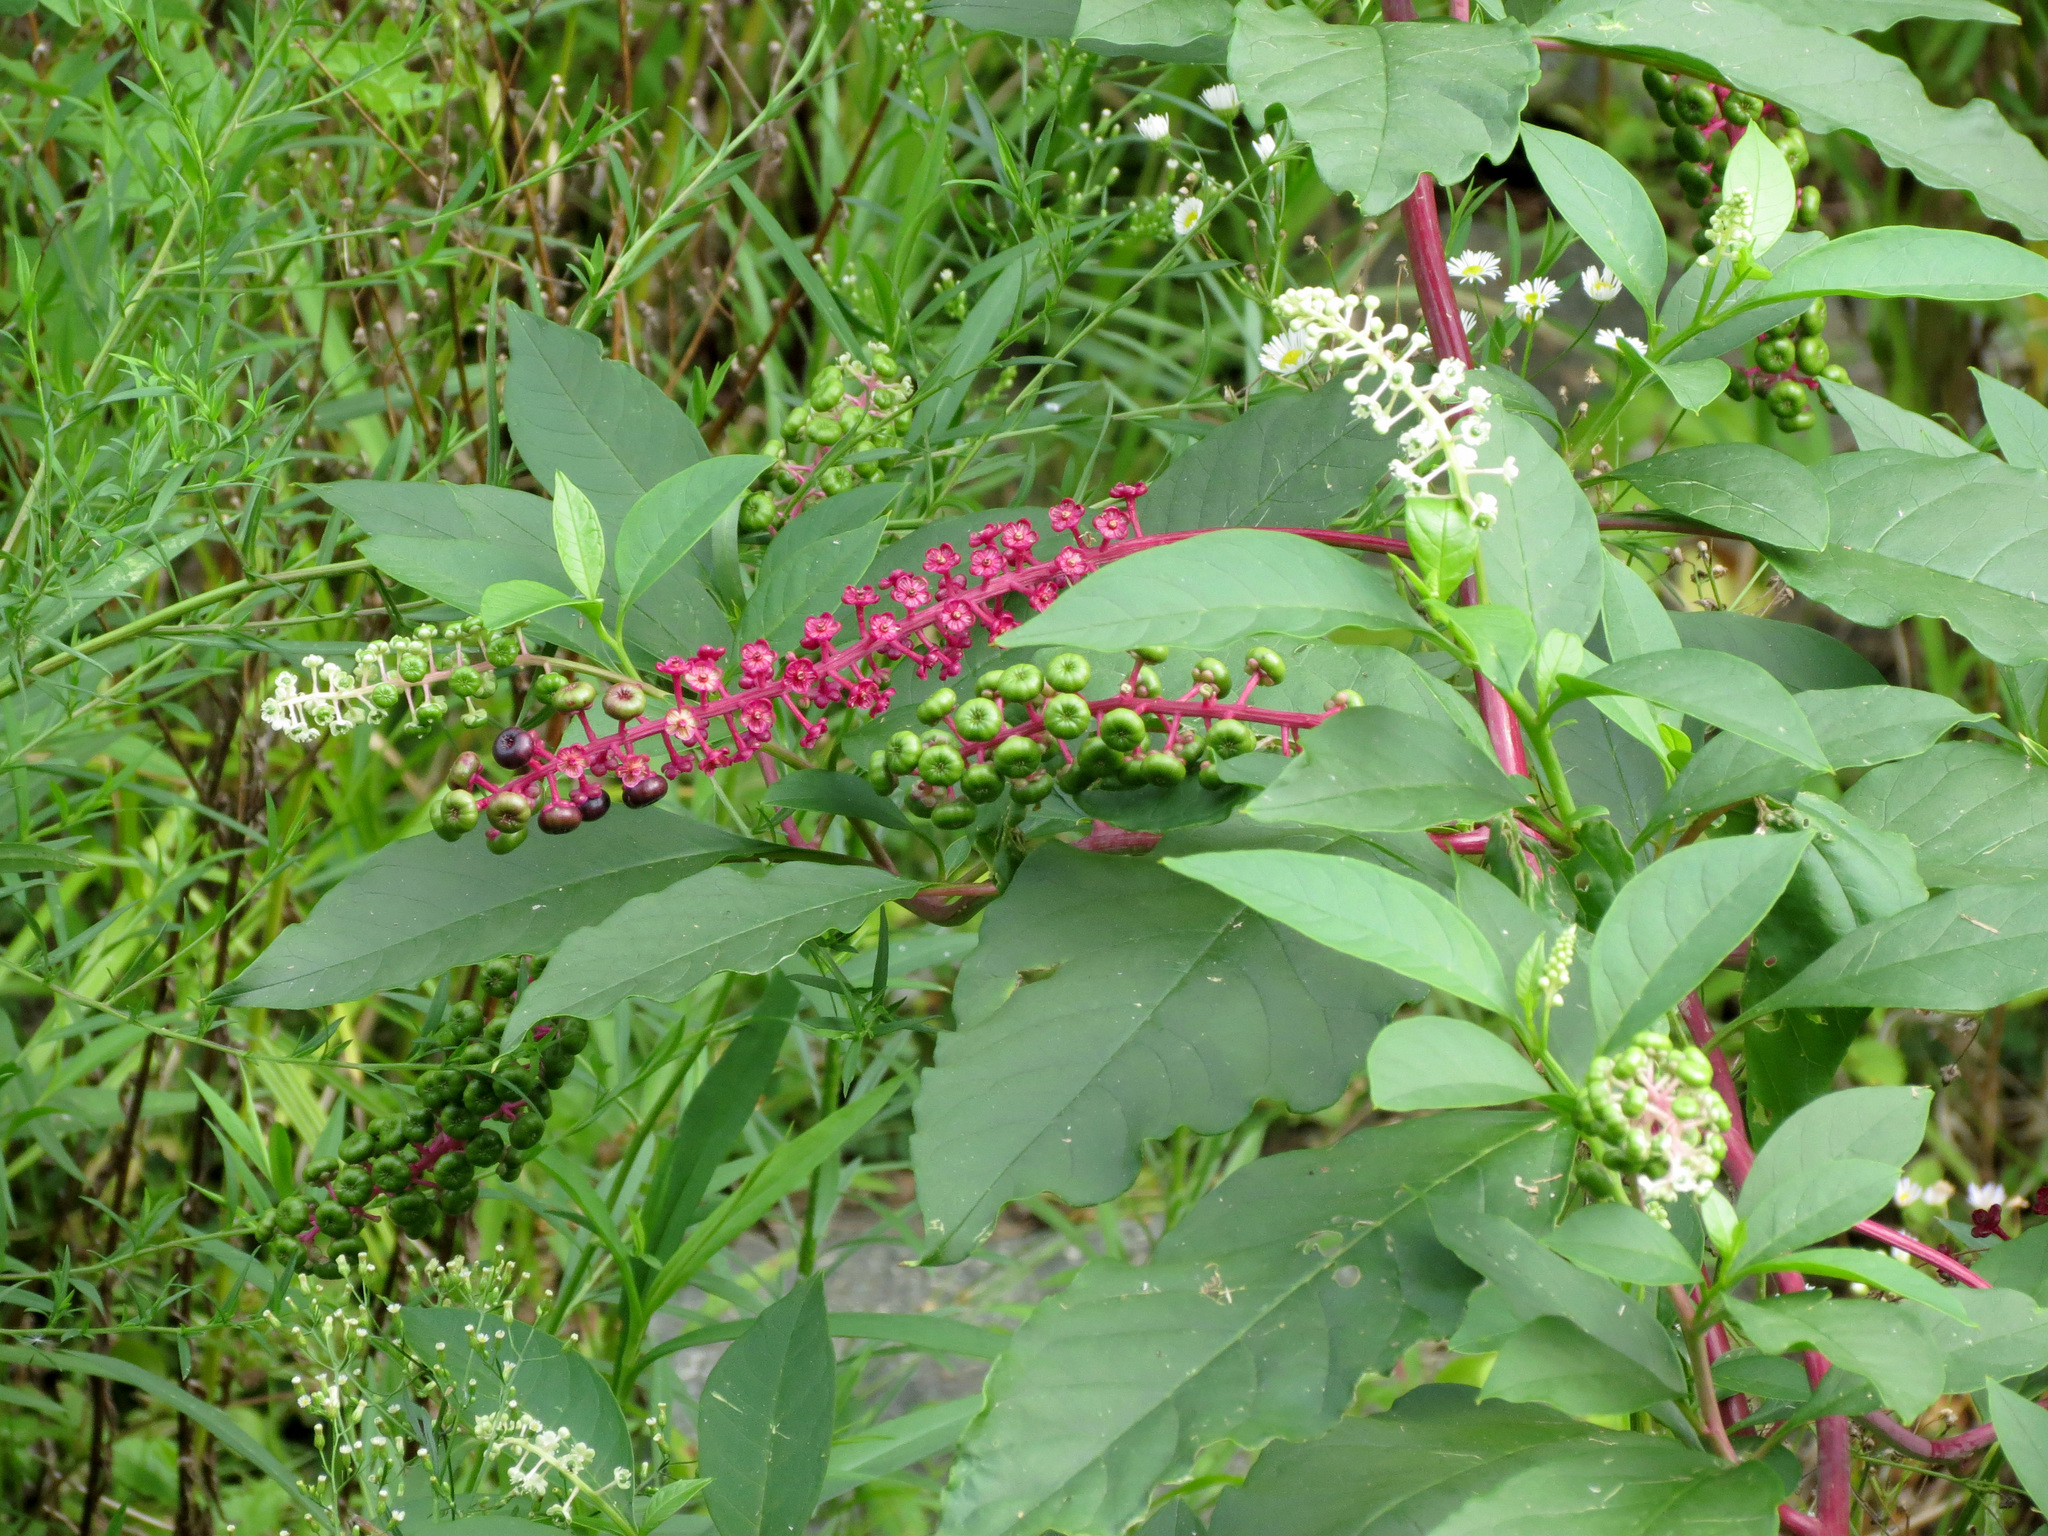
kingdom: Plantae
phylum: Tracheophyta
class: Magnoliopsida
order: Caryophyllales
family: Phytolaccaceae
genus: Phytolacca
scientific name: Phytolacca americana
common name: American pokeweed
